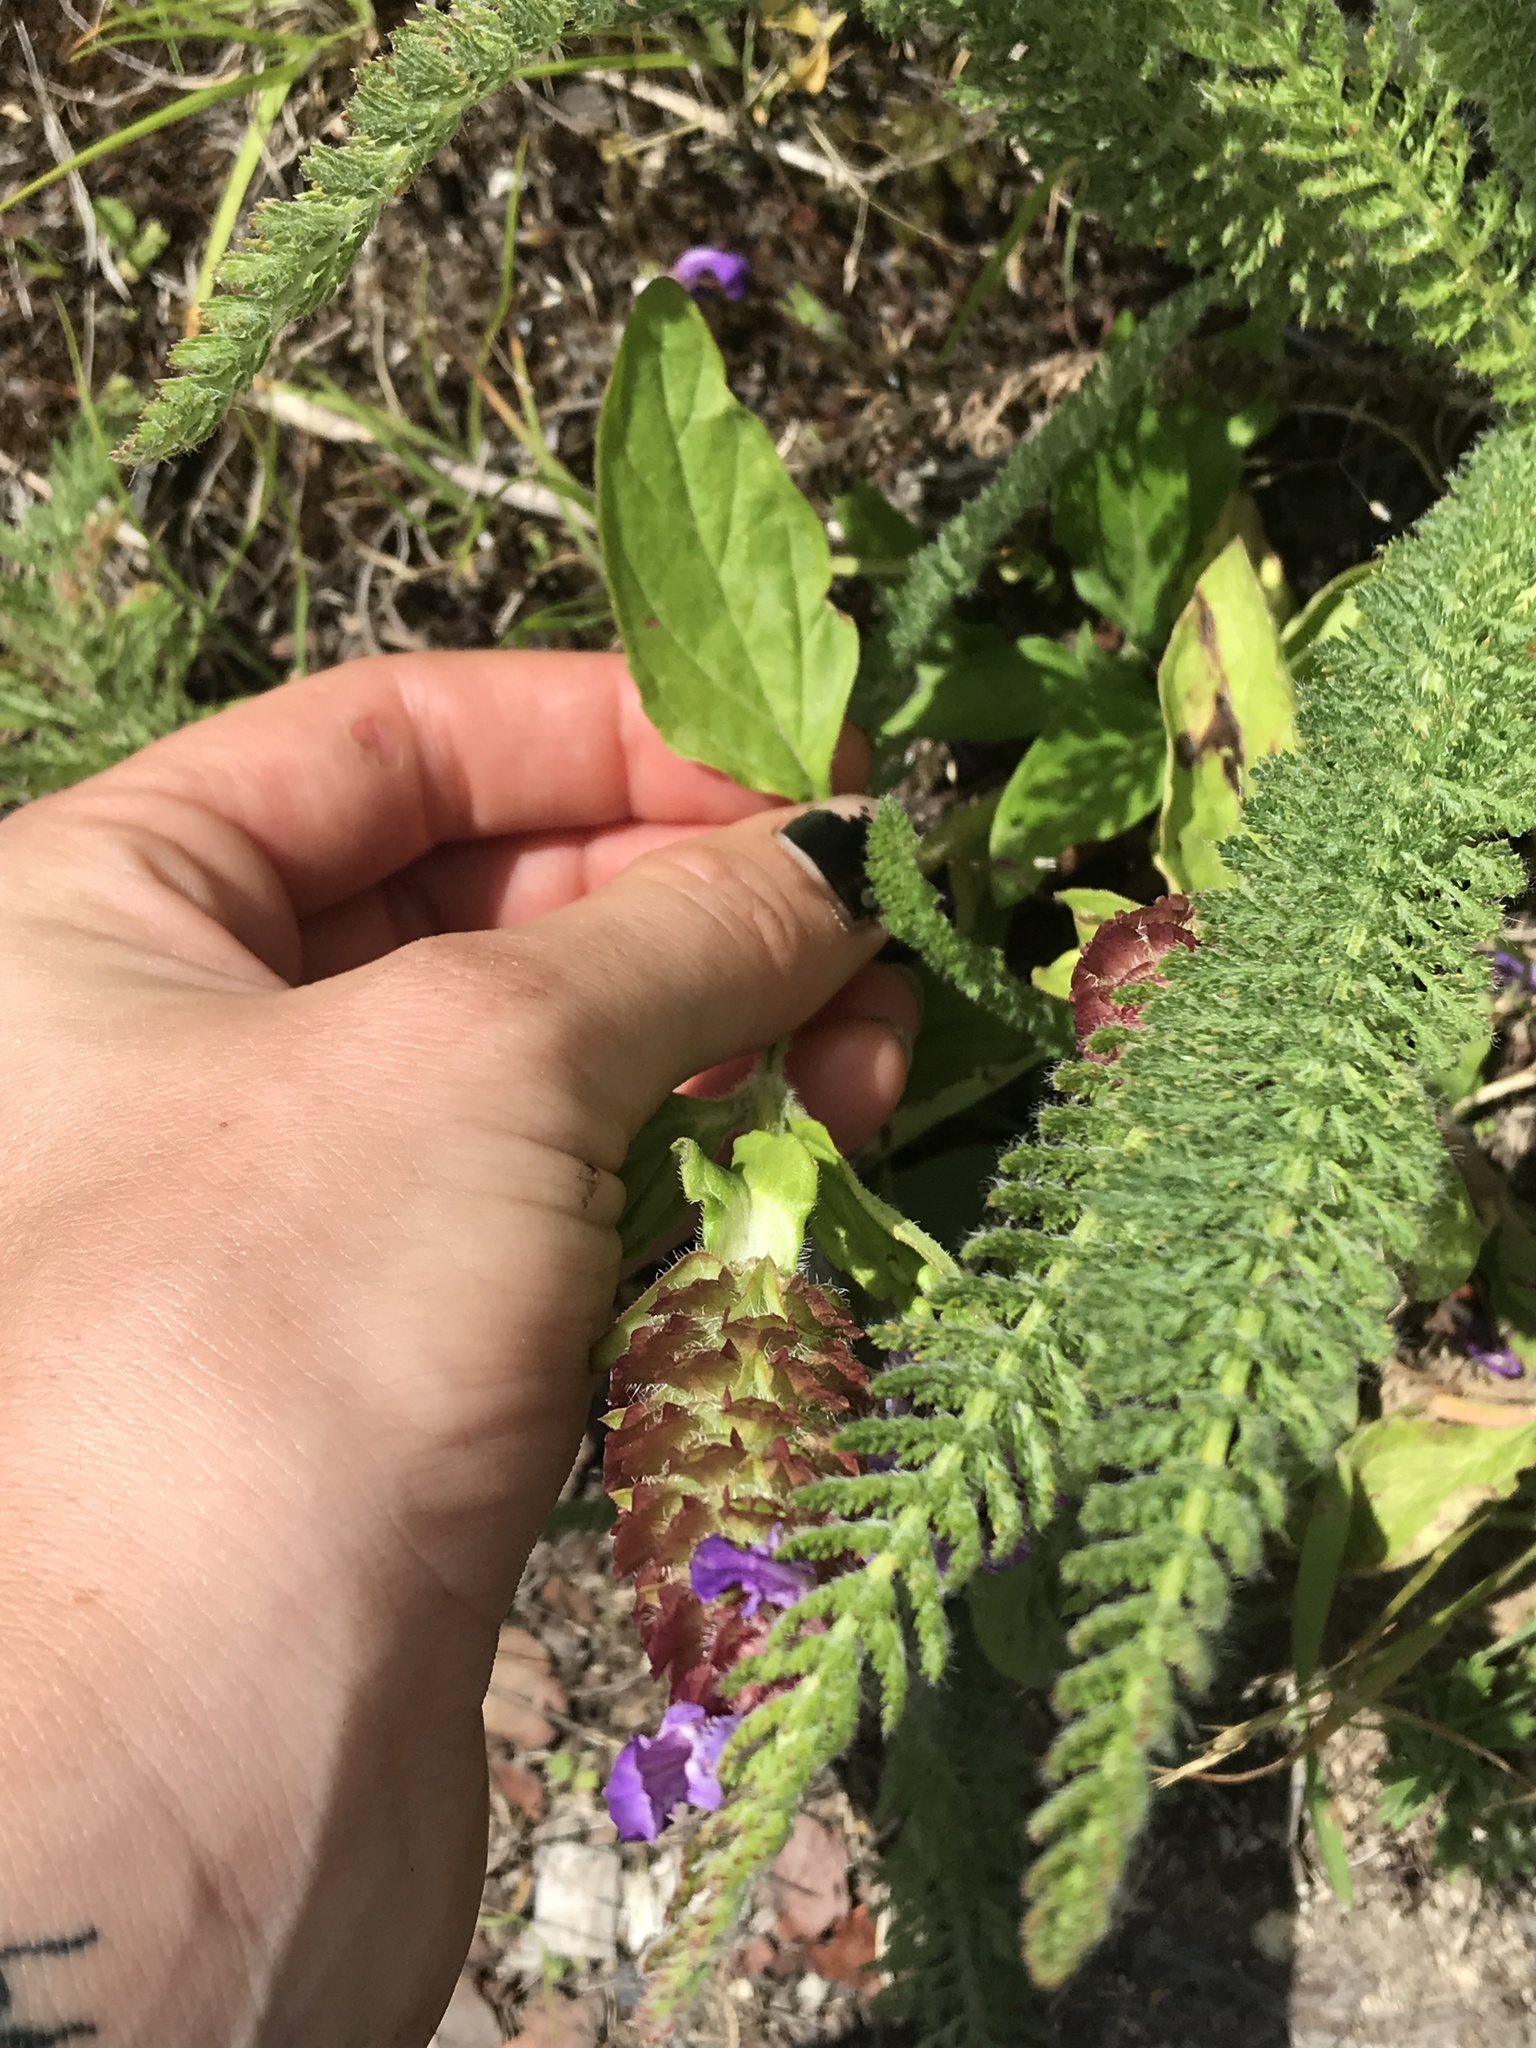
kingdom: Plantae
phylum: Tracheophyta
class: Magnoliopsida
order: Lamiales
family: Lamiaceae
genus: Prunella
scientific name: Prunella vulgaris
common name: Heal-all
